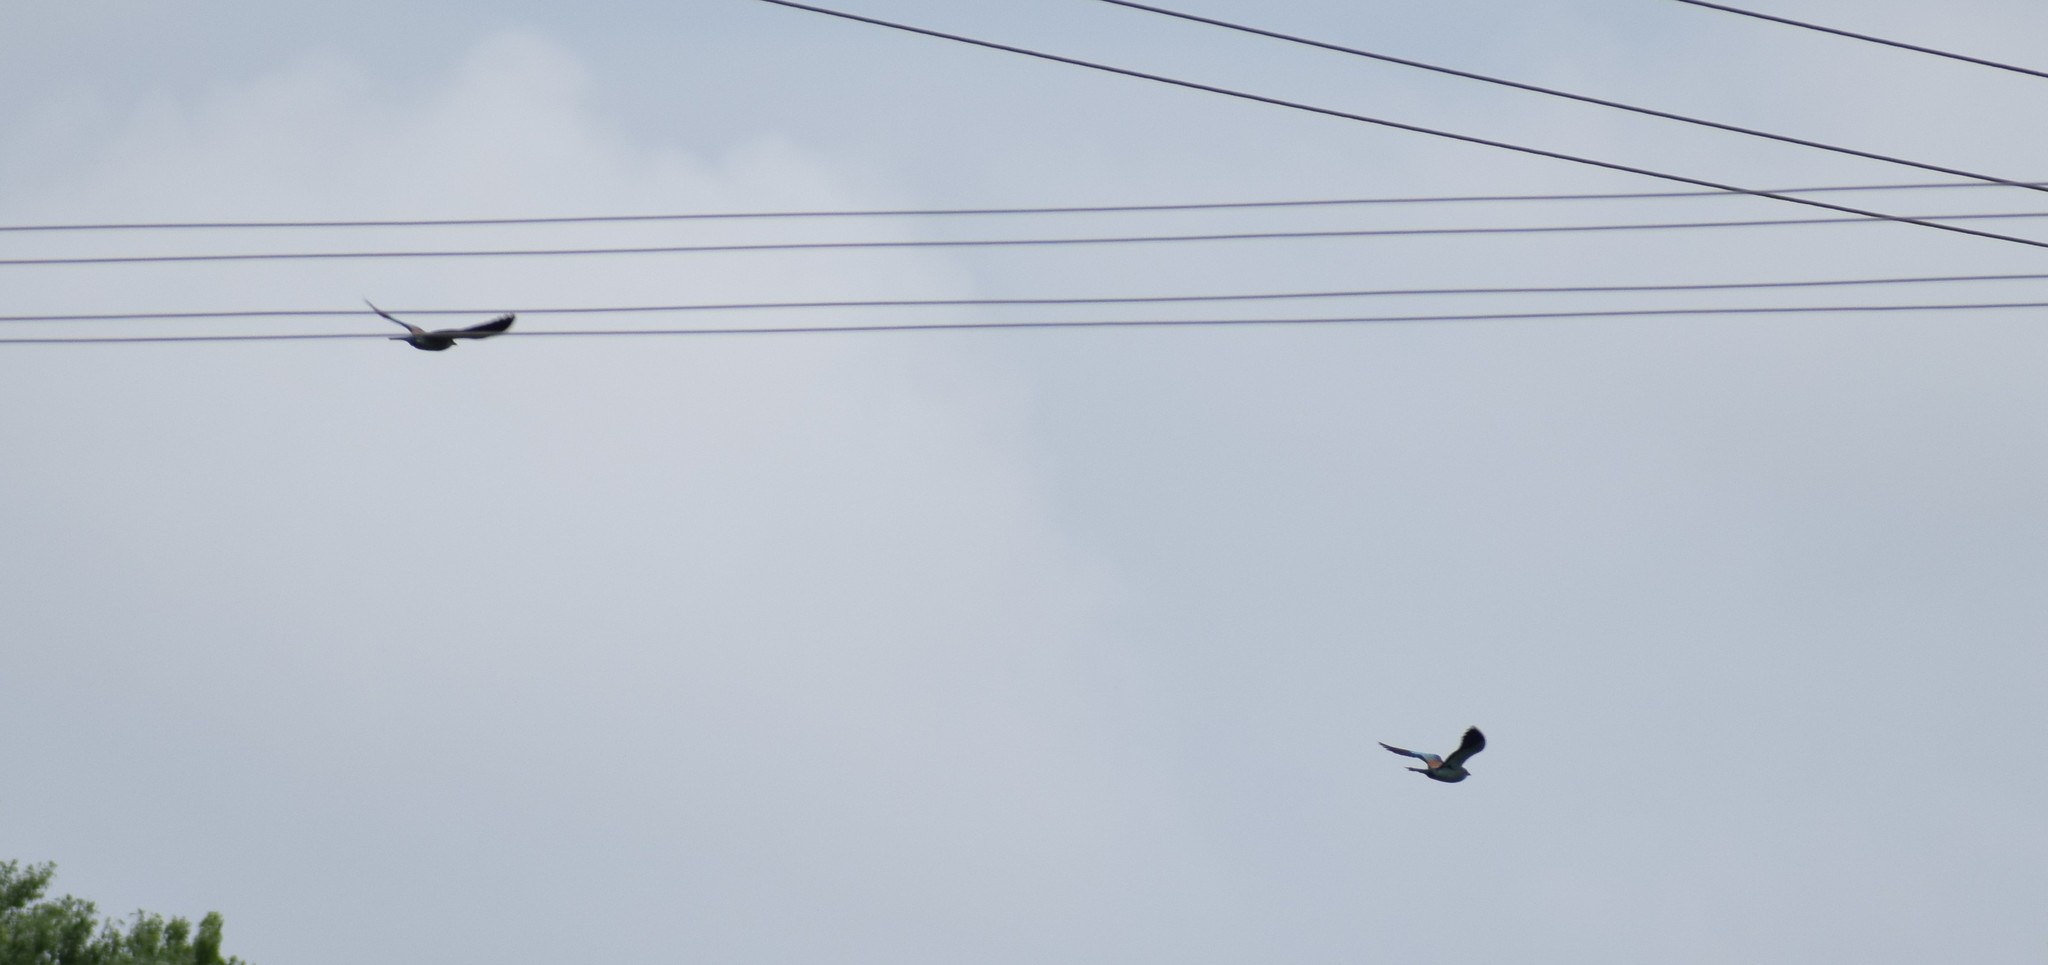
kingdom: Animalia
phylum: Chordata
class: Aves
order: Coraciiformes
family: Coraciidae
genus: Coracias
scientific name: Coracias garrulus
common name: European roller
